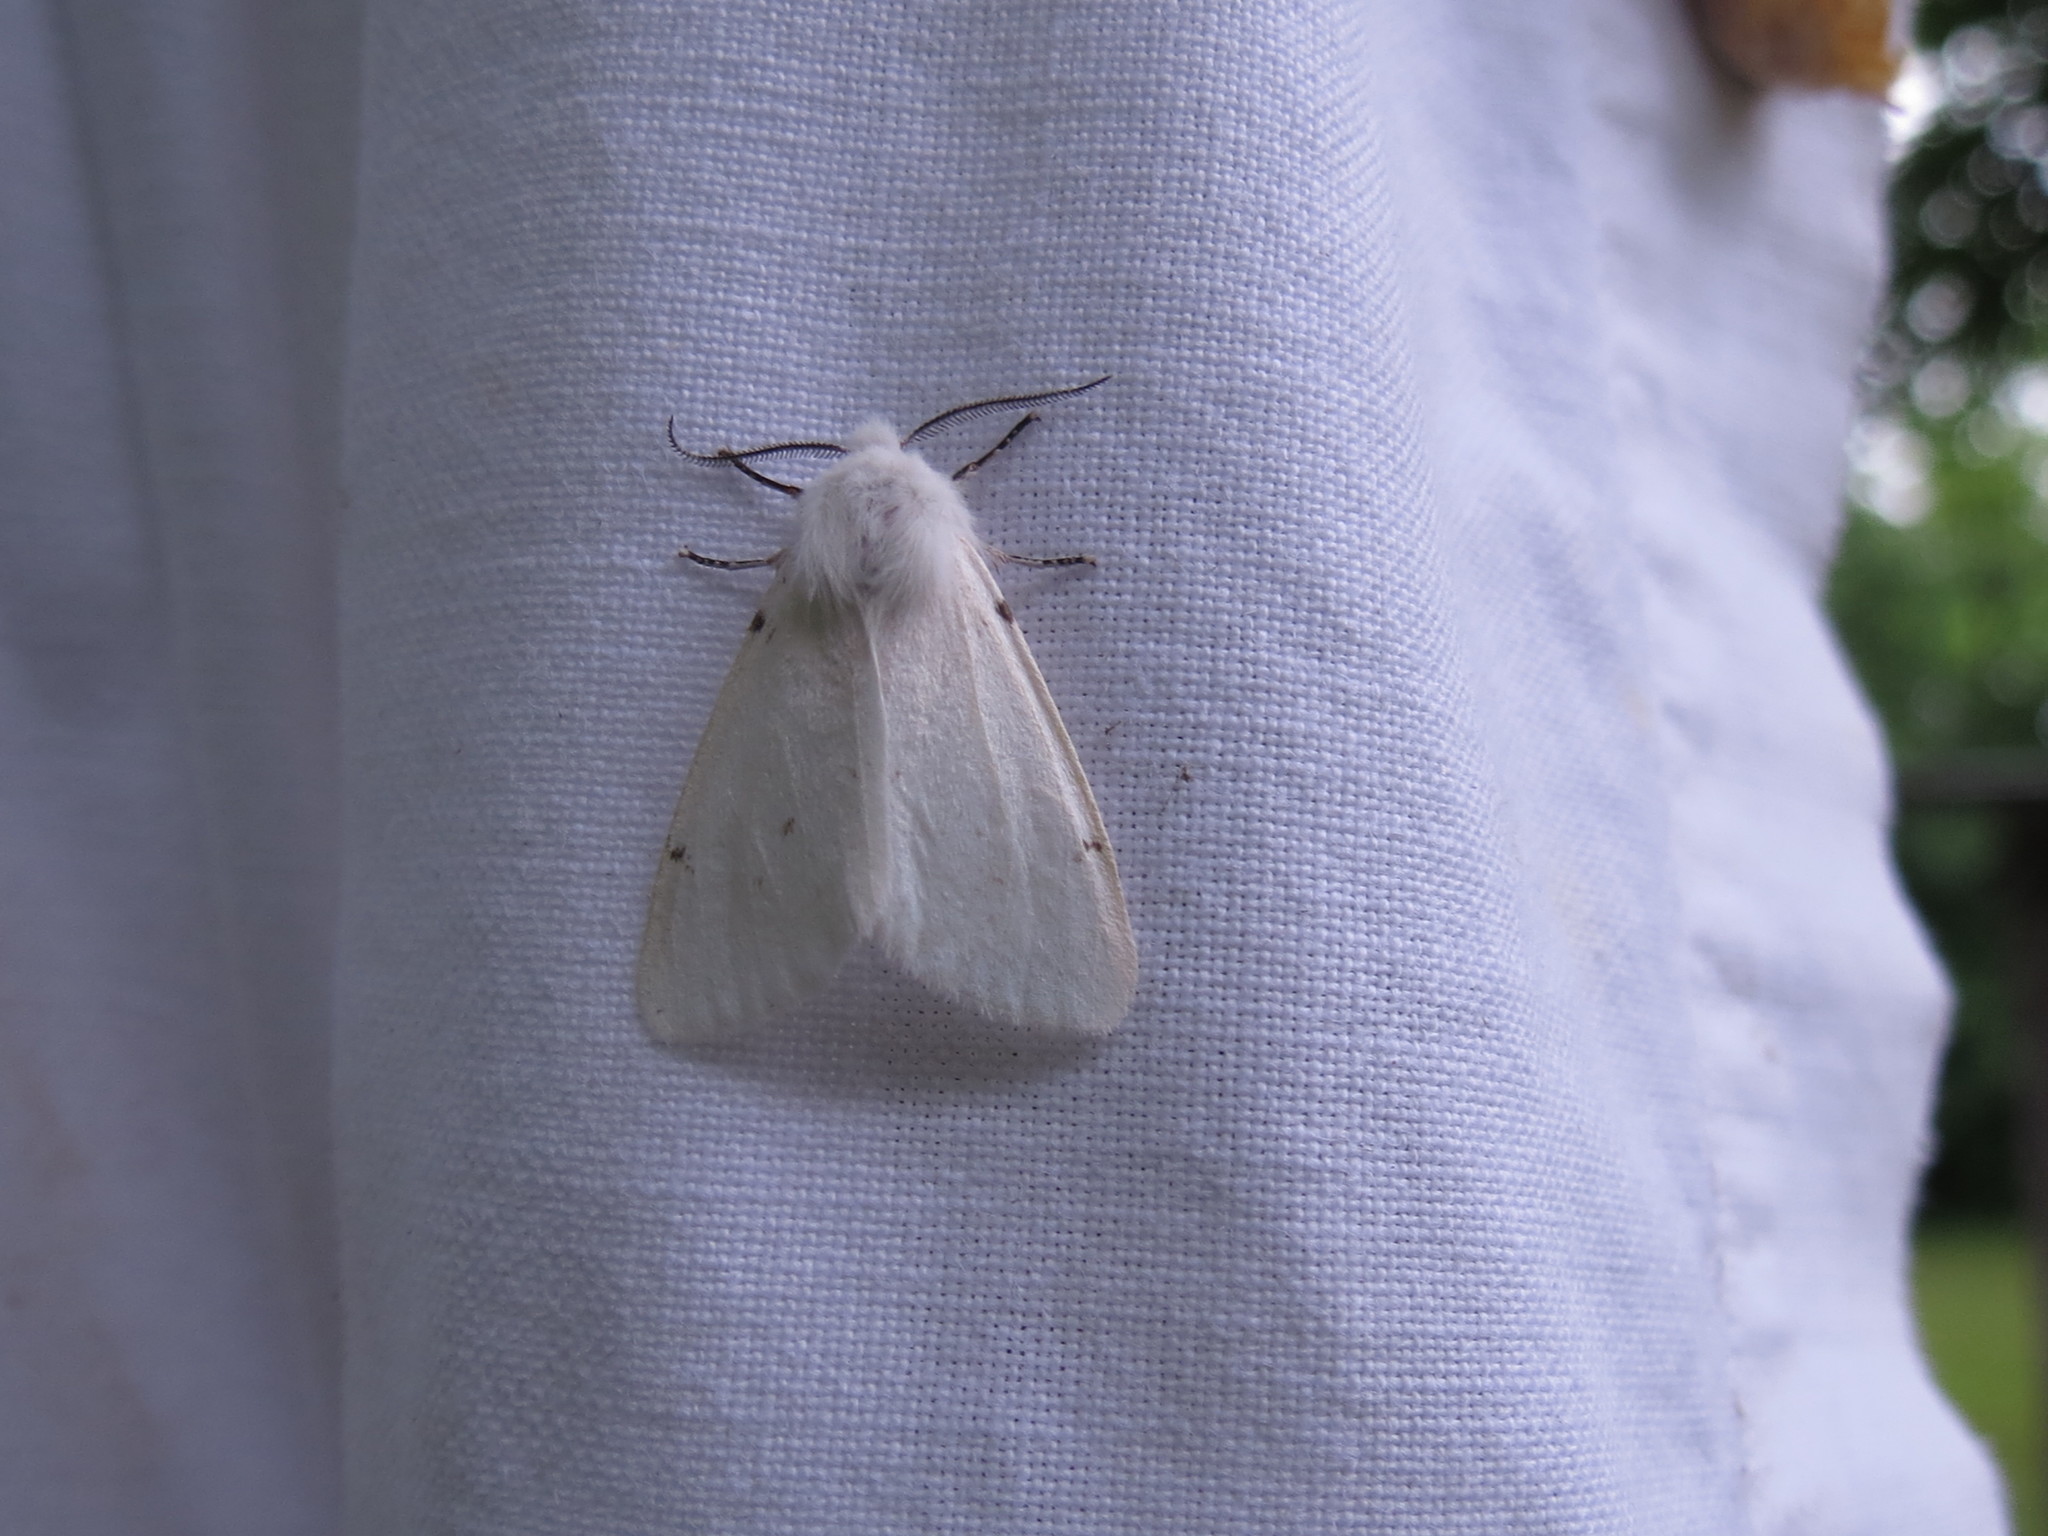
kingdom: Animalia
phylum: Arthropoda
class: Insecta
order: Lepidoptera
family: Erebidae
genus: Hyphantria
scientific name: Hyphantria cunea
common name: American white moth
